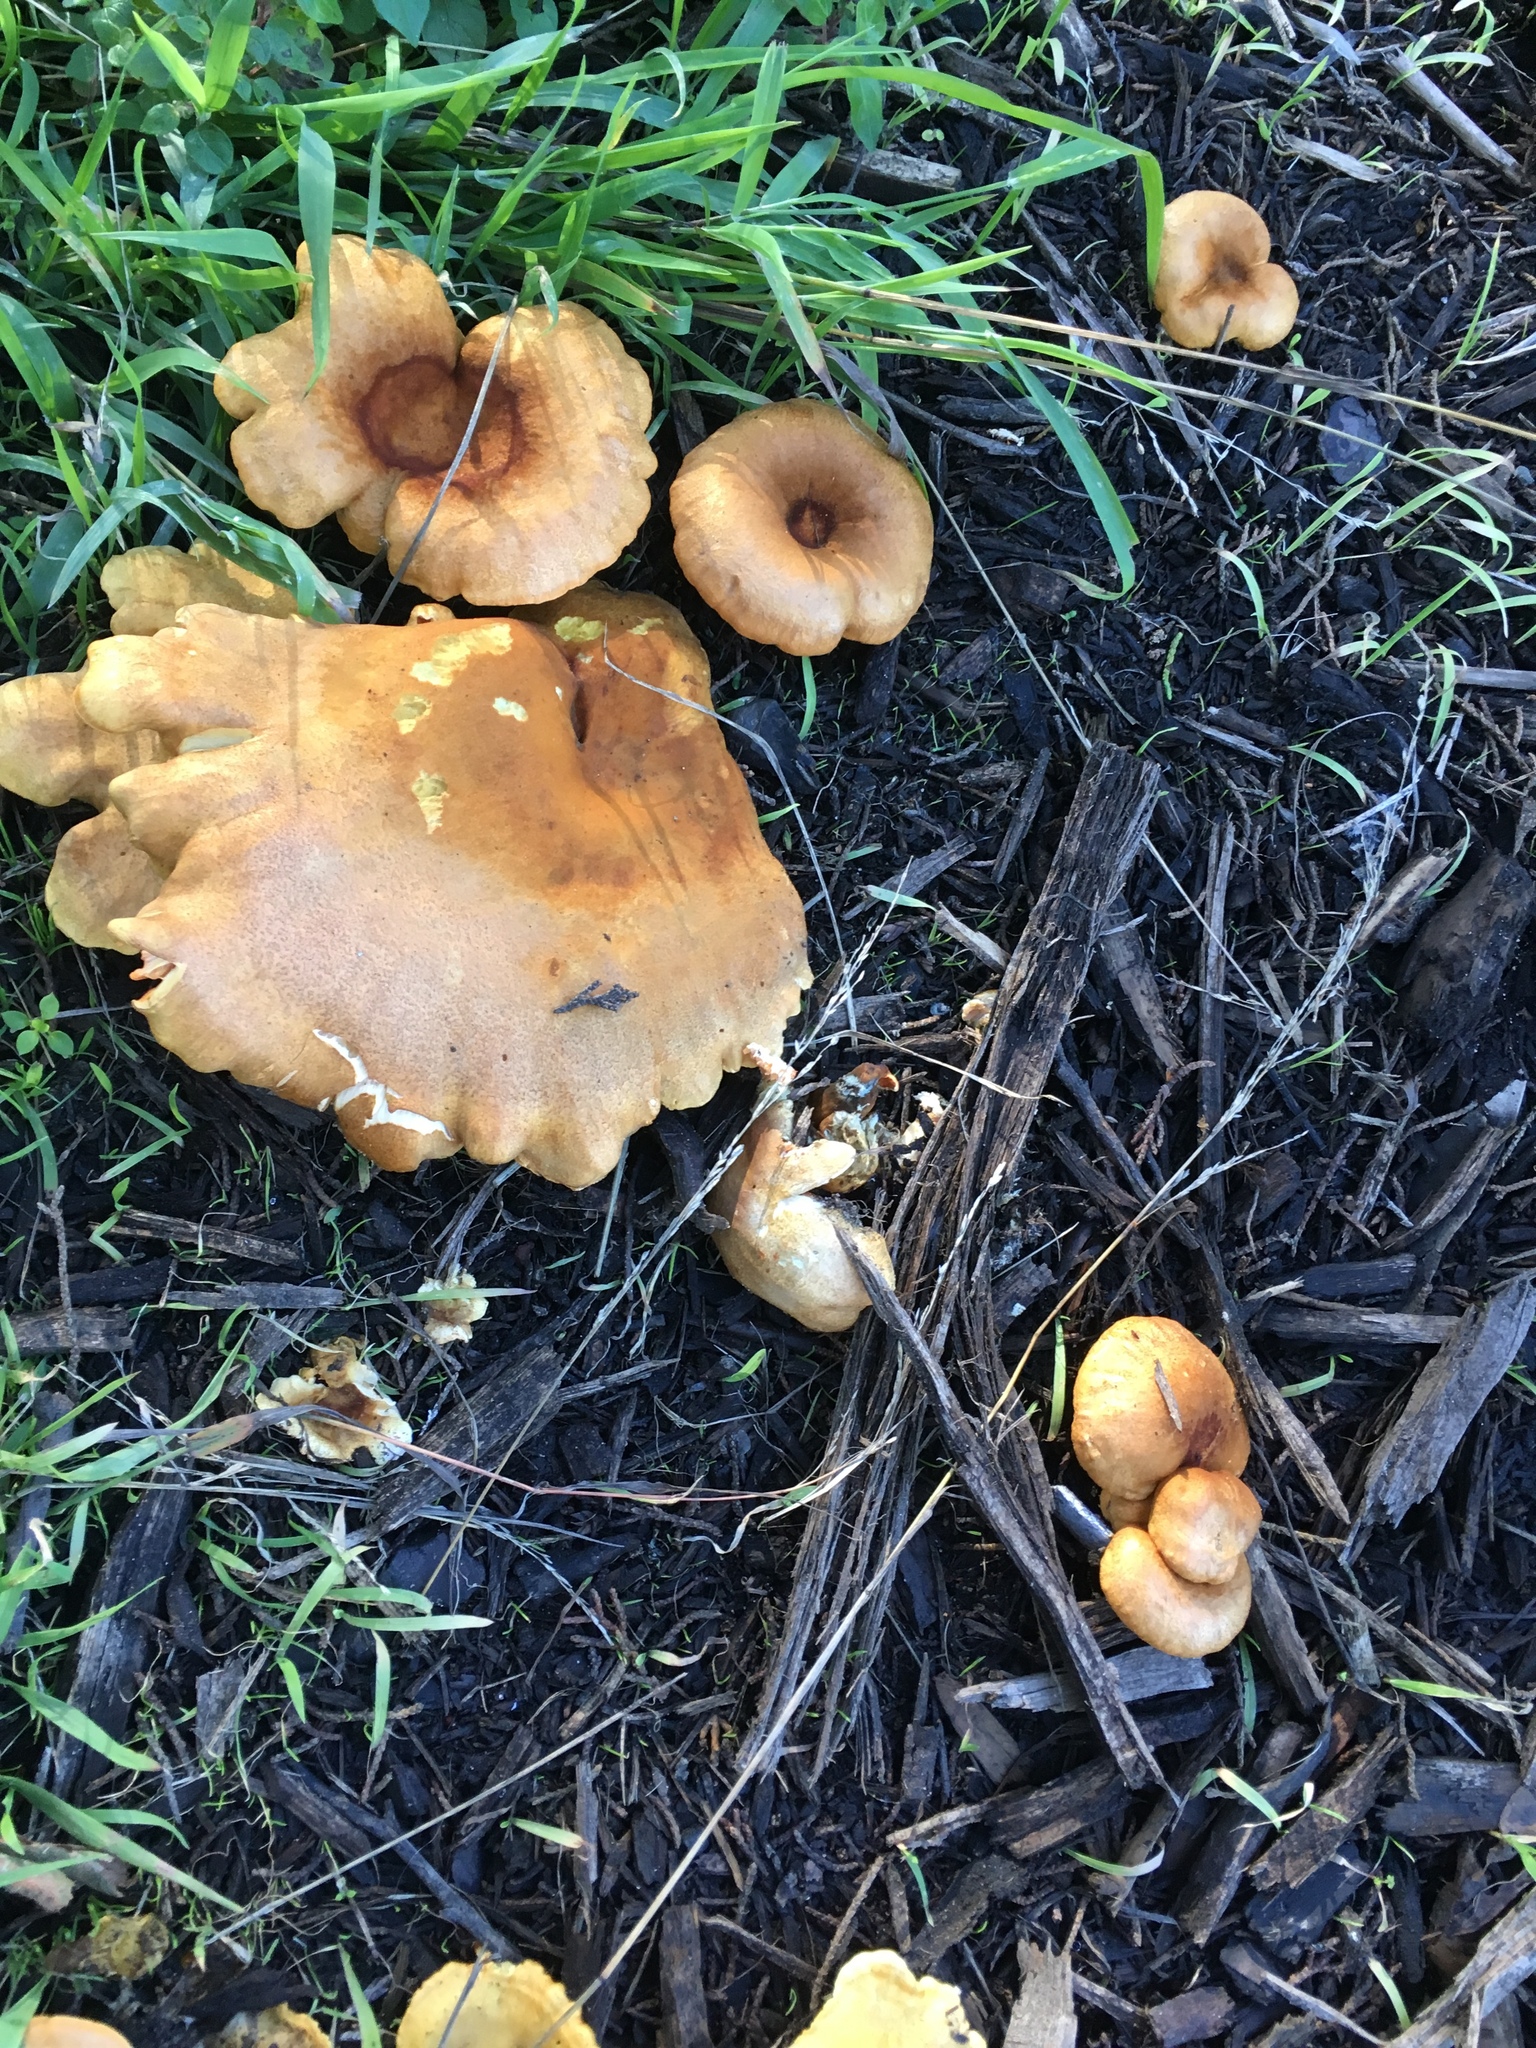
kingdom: Fungi
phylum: Basidiomycota
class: Agaricomycetes
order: Boletales
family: Hygrophoropsidaceae
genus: Hygrophoropsis
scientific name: Hygrophoropsis aurantiaca
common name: False chanterelle
